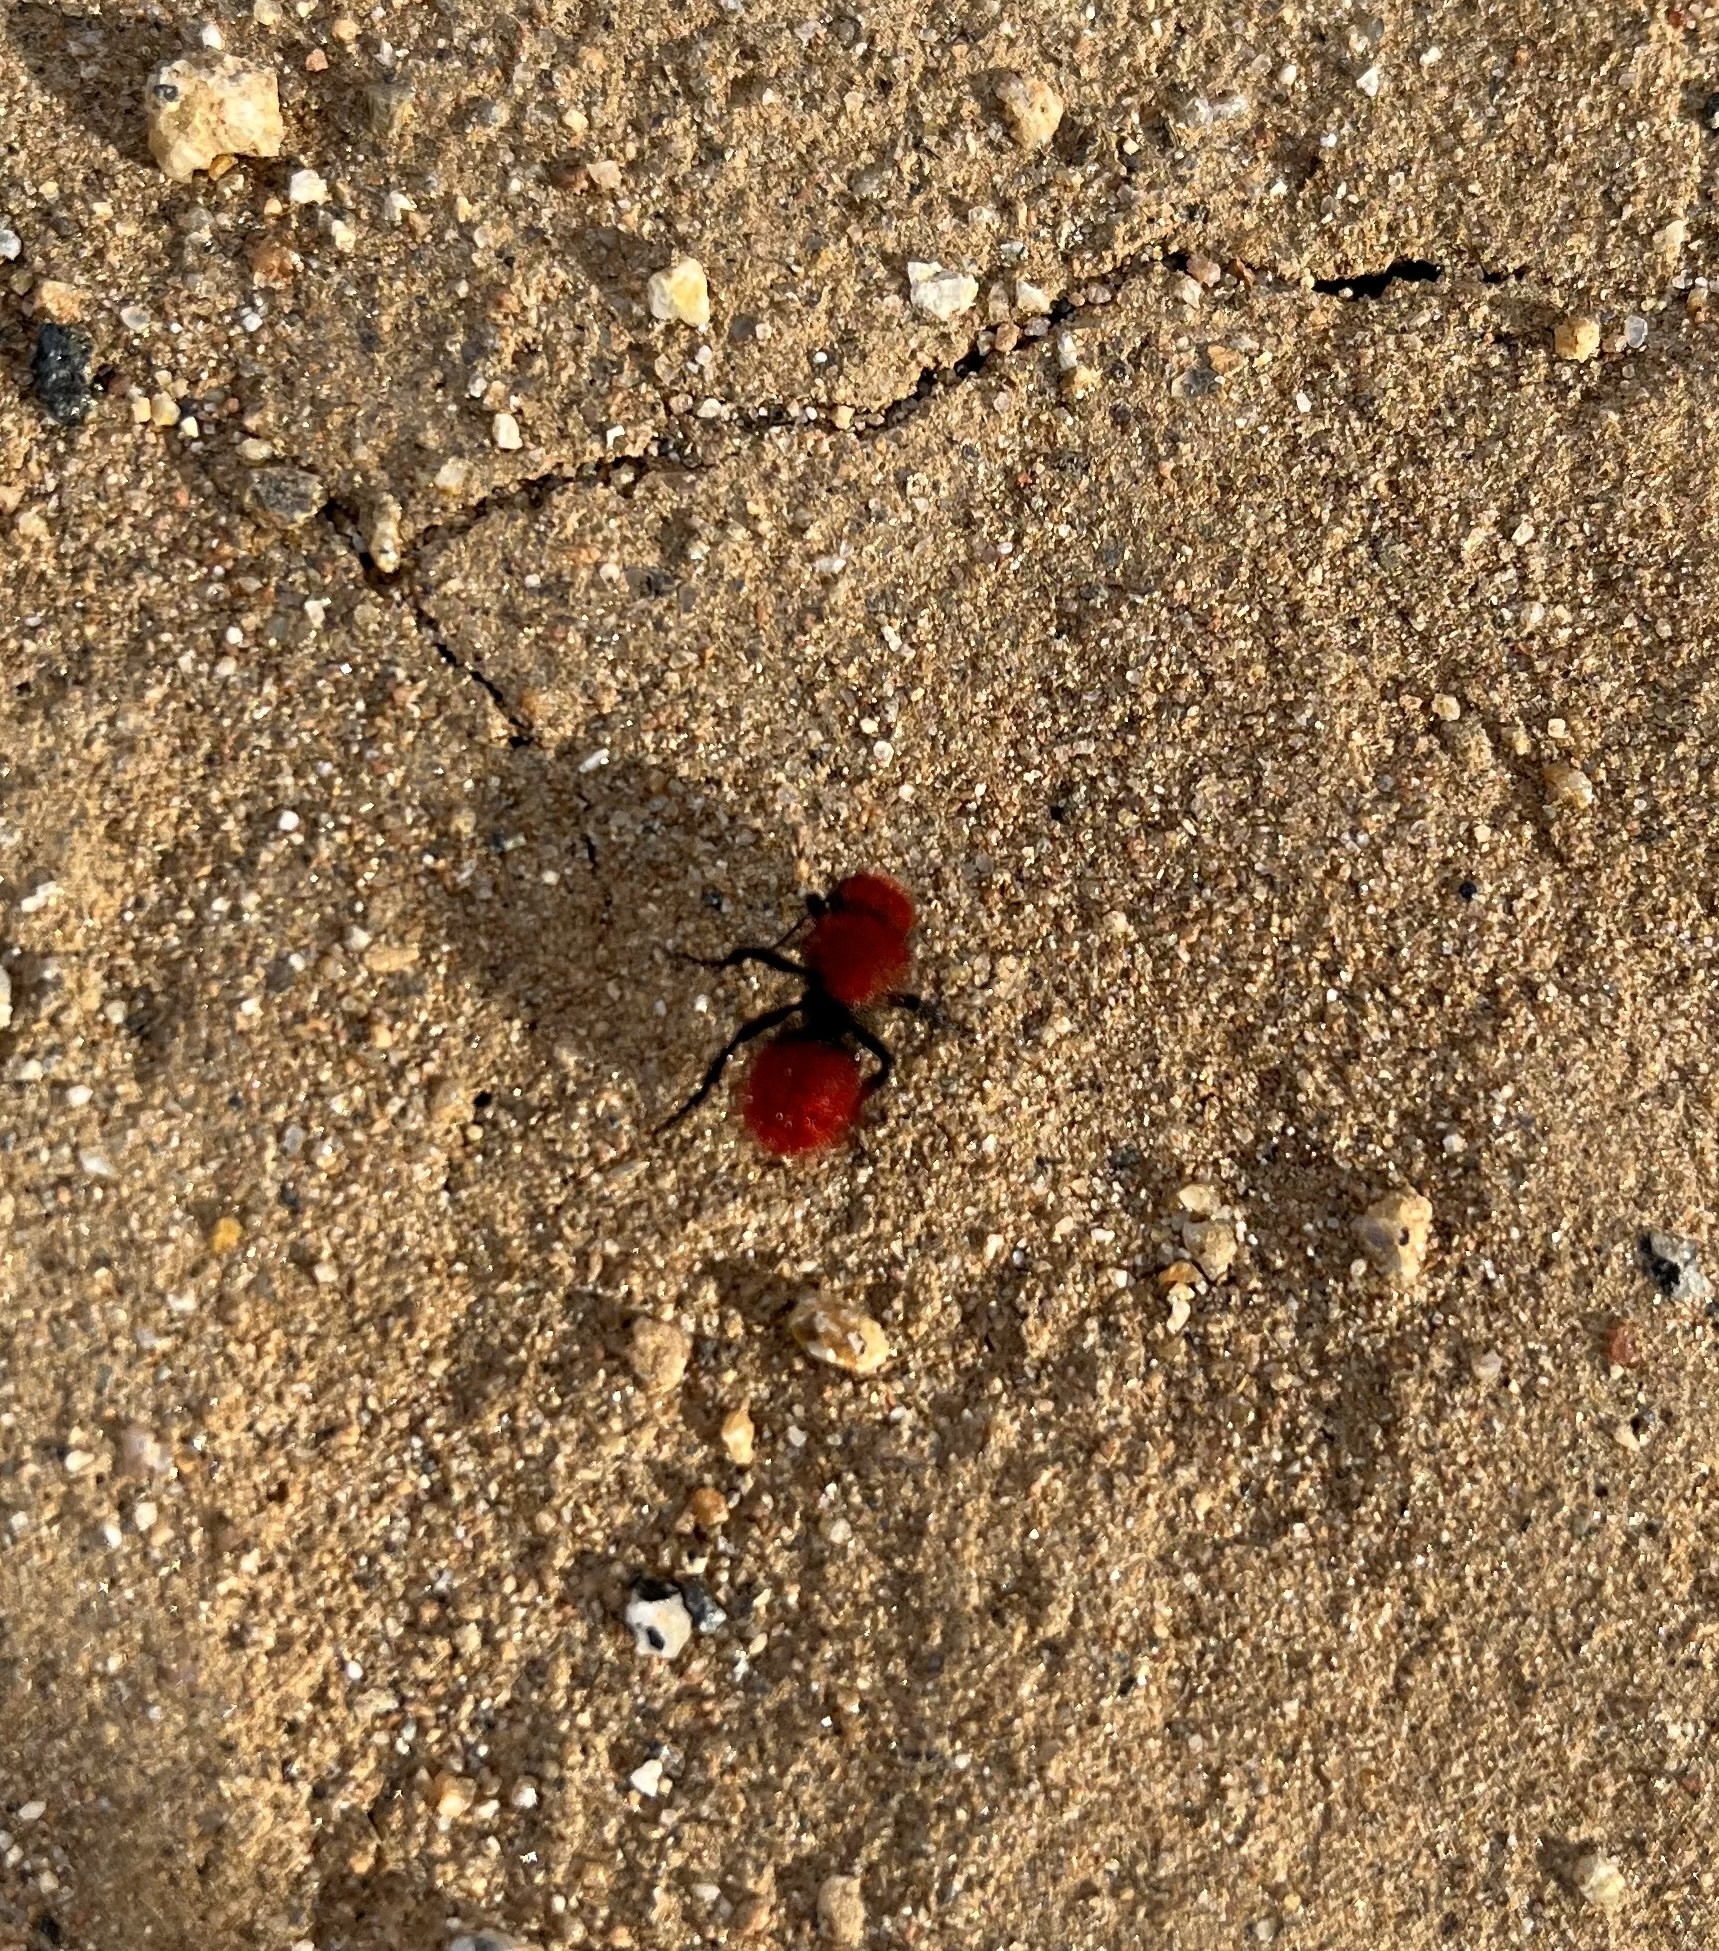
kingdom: Animalia
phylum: Arthropoda
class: Insecta
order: Hymenoptera
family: Mutillidae
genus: Dasymutilla
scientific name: Dasymutilla
